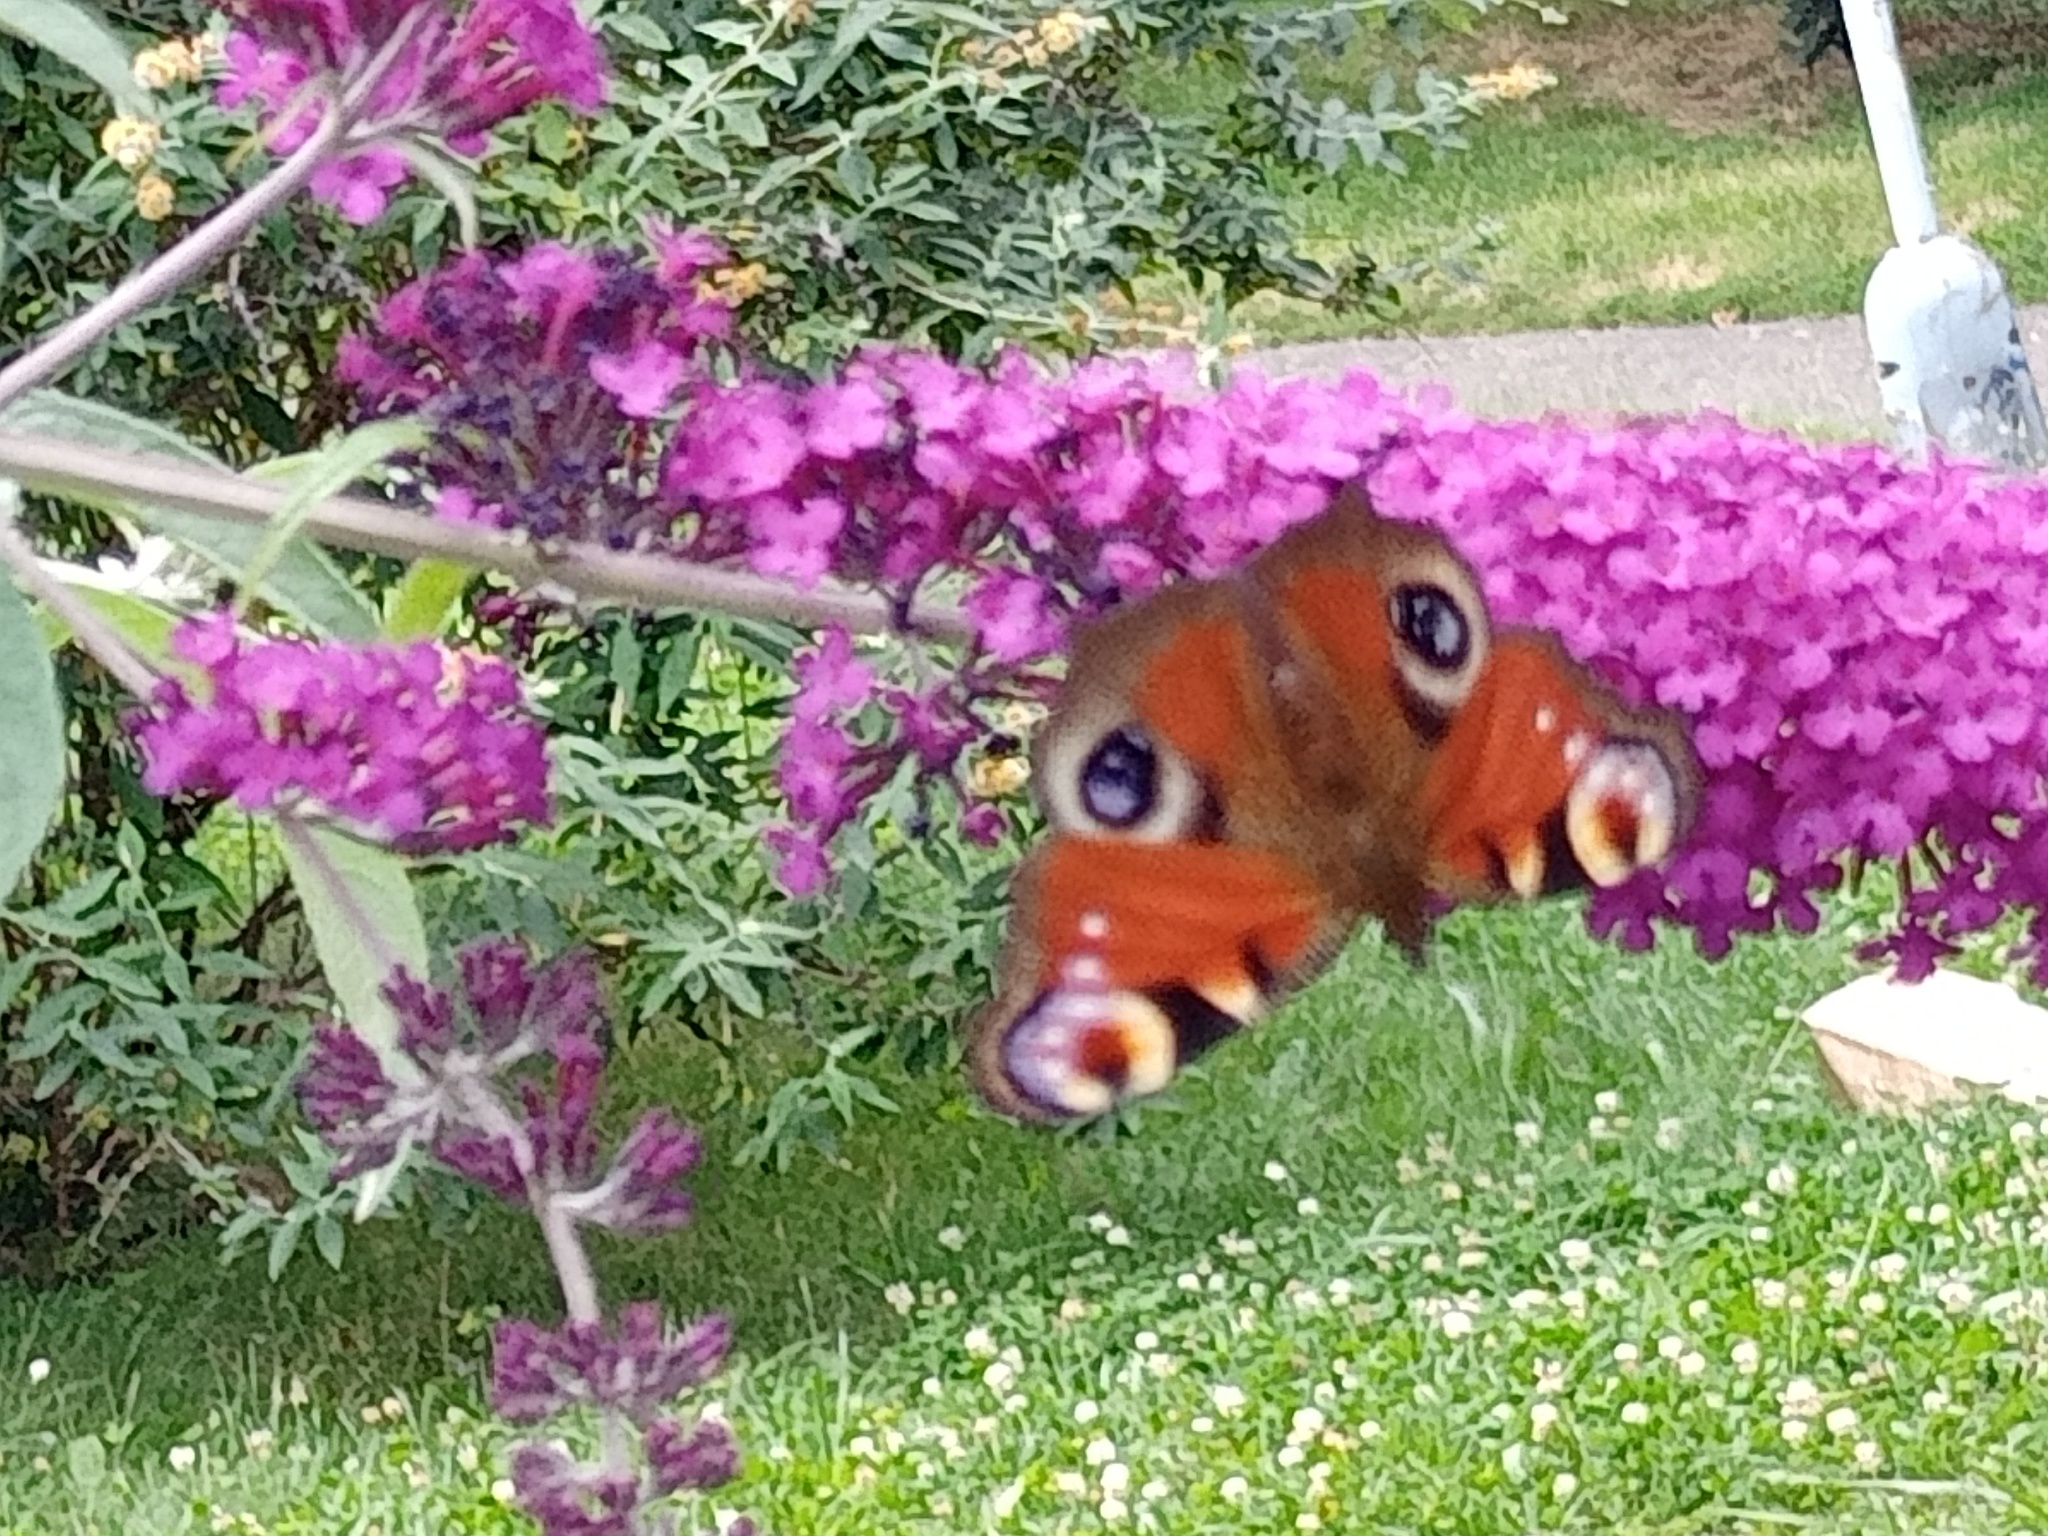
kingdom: Animalia
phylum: Arthropoda
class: Insecta
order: Lepidoptera
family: Nymphalidae
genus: Aglais
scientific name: Aglais io
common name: Peacock
